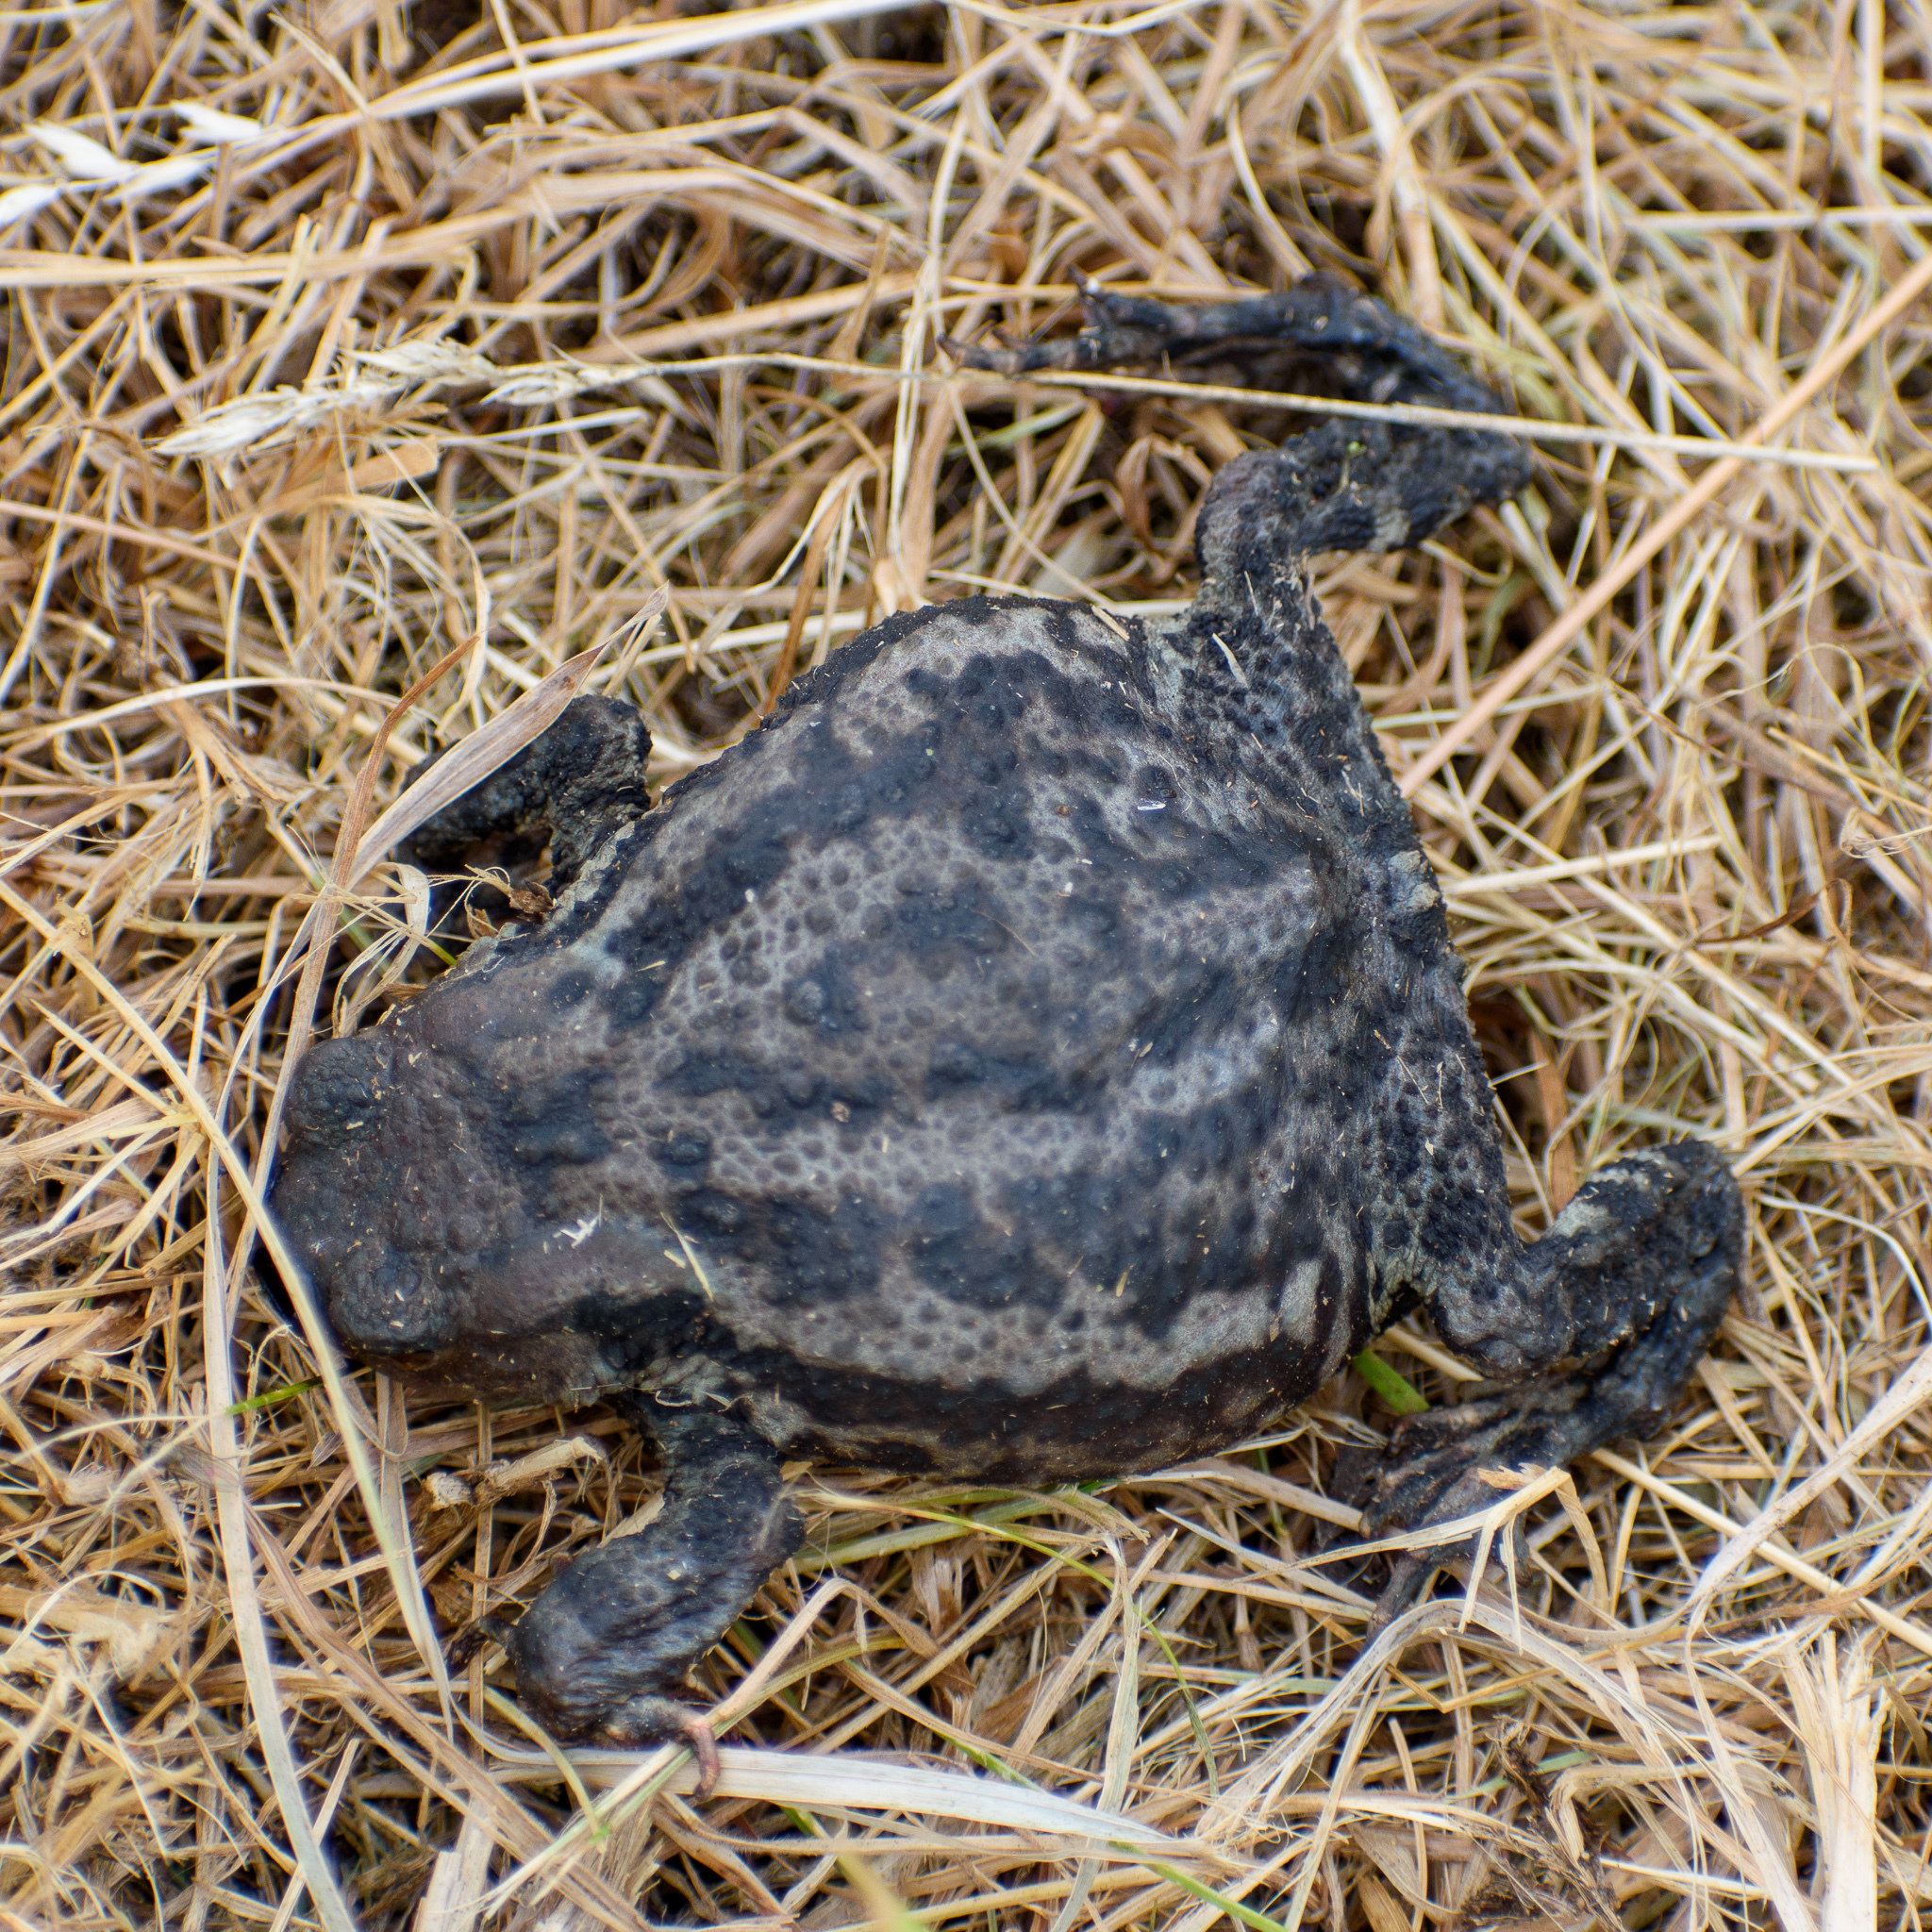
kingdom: Animalia
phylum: Chordata
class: Amphibia
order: Anura
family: Bufonidae
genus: Bufo
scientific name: Bufo bufo
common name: Common toad
